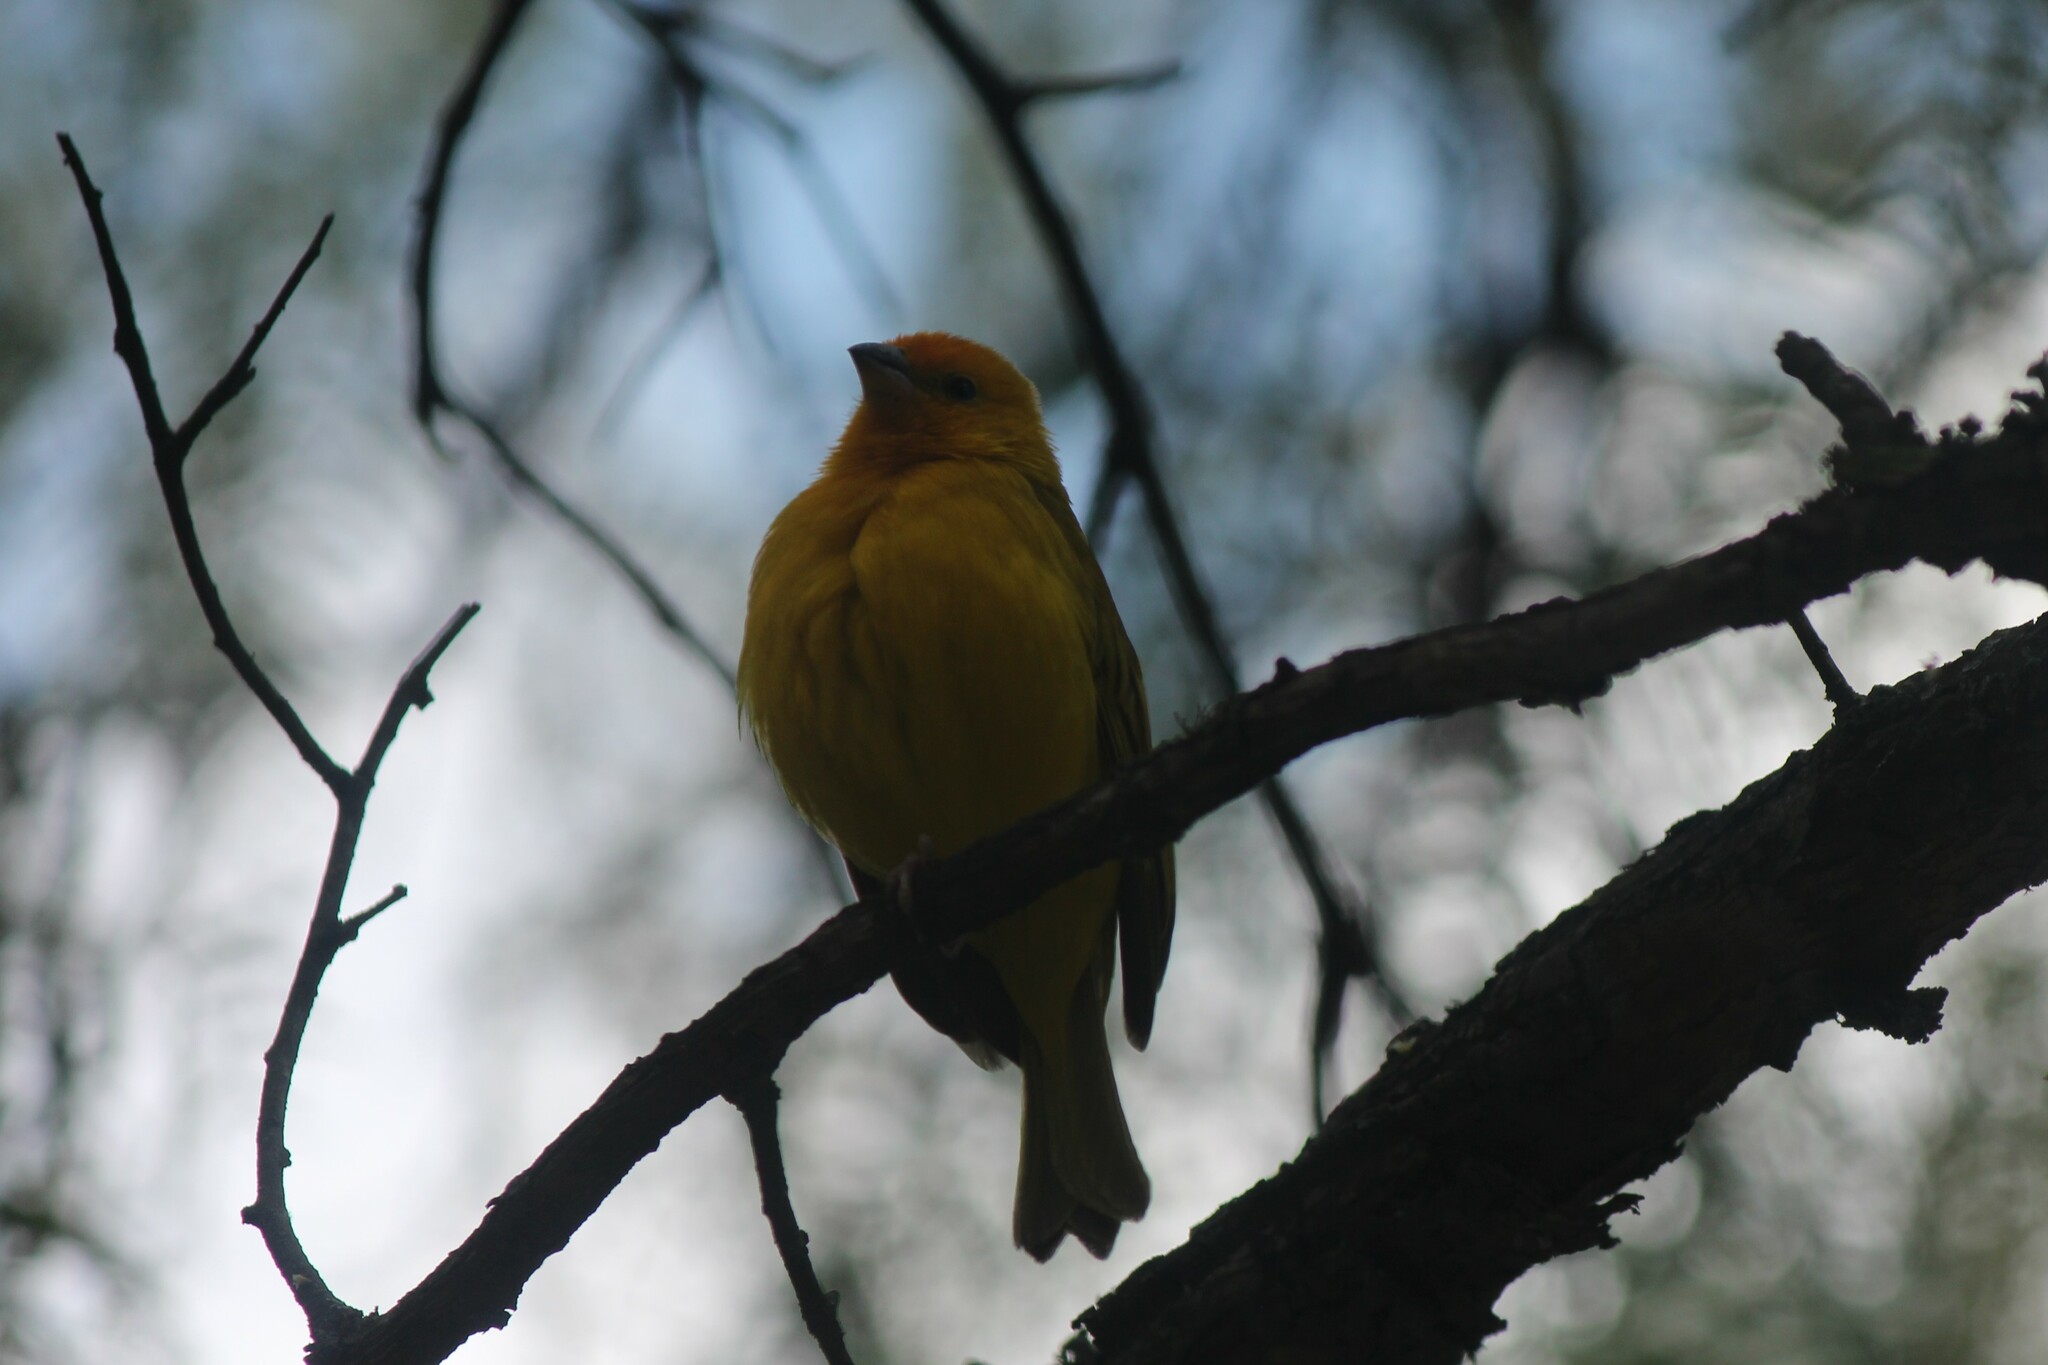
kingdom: Animalia
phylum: Chordata
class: Aves
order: Passeriformes
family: Thraupidae
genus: Sicalis
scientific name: Sicalis flaveola
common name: Saffron finch
